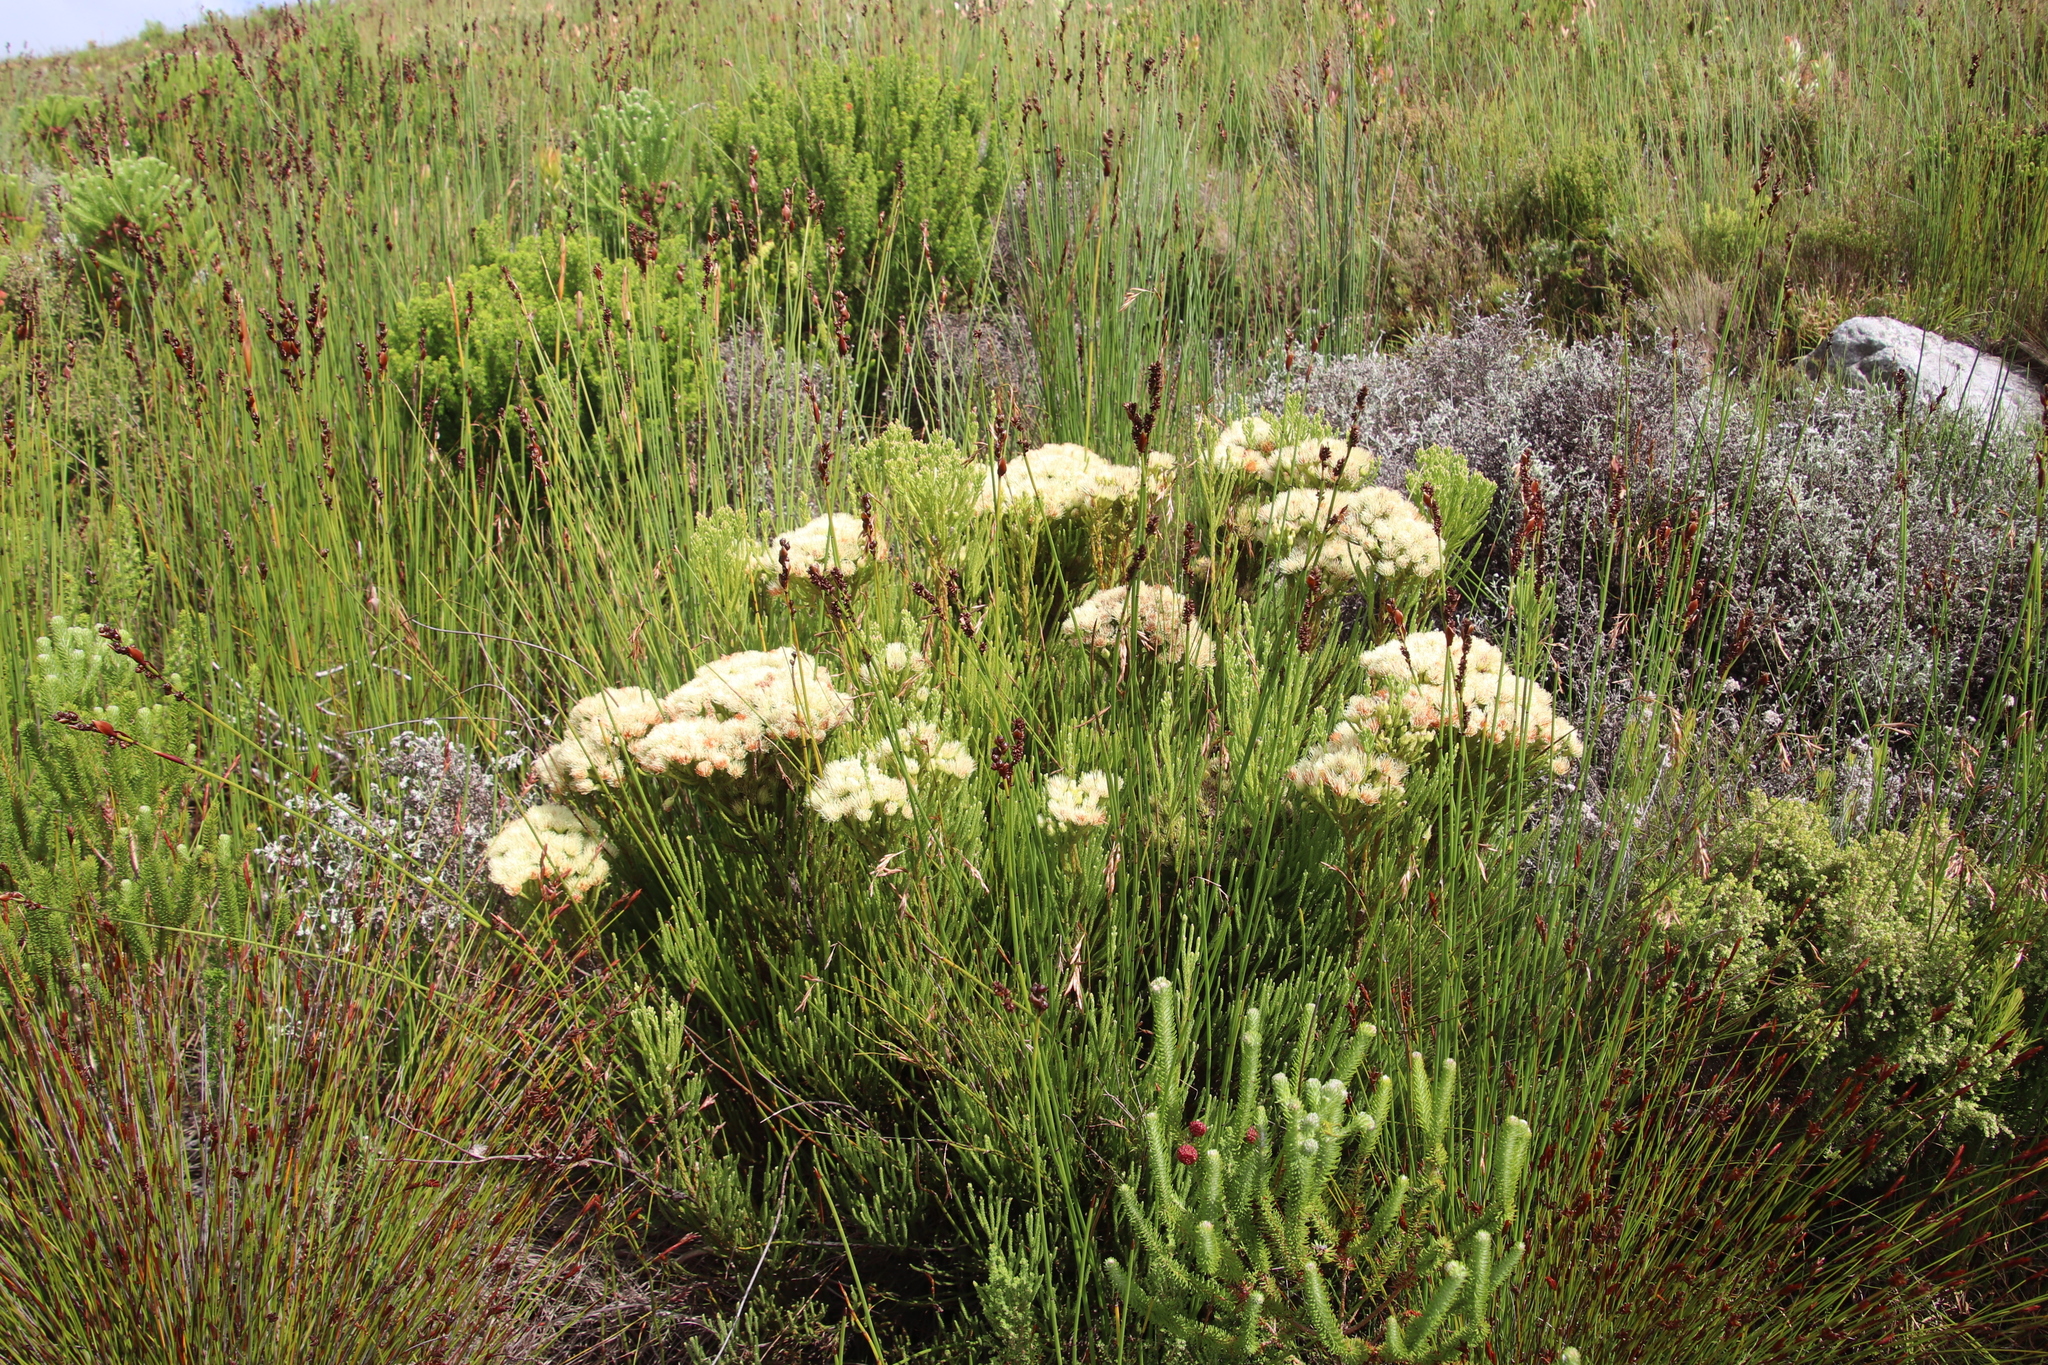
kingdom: Plantae
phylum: Tracheophyta
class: Magnoliopsida
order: Bruniales
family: Bruniaceae
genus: Brunia
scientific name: Brunia paleacea
